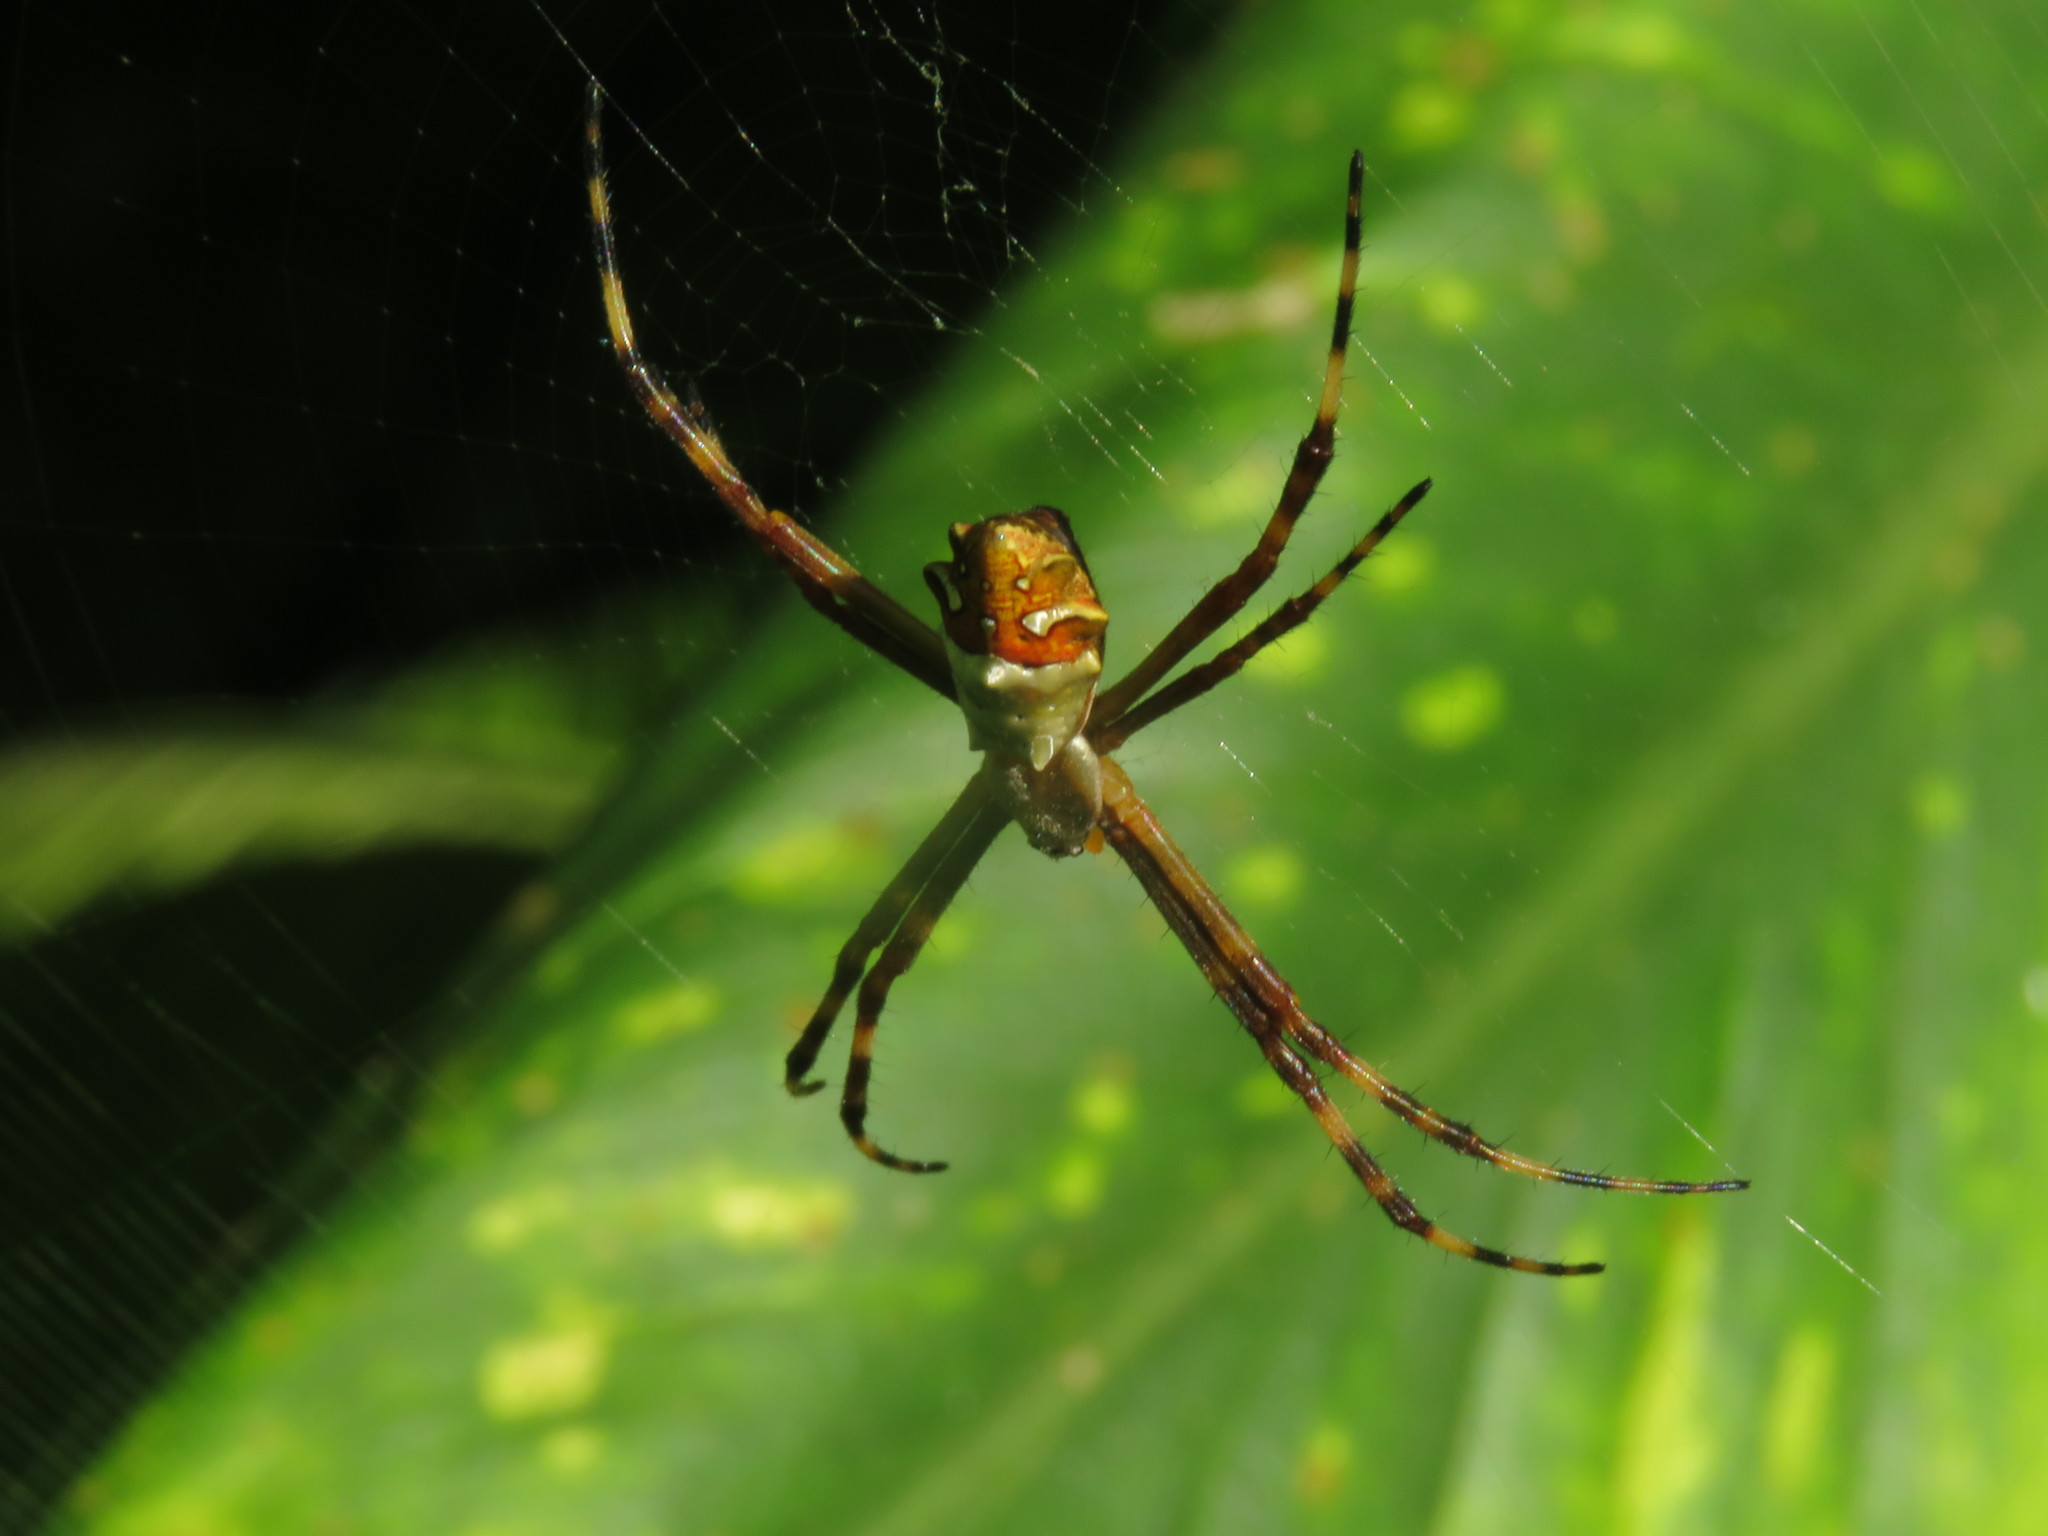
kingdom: Animalia
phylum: Arthropoda
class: Arachnida
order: Araneae
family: Araneidae
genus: Argiope
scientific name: Argiope argentata
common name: Orb weavers
